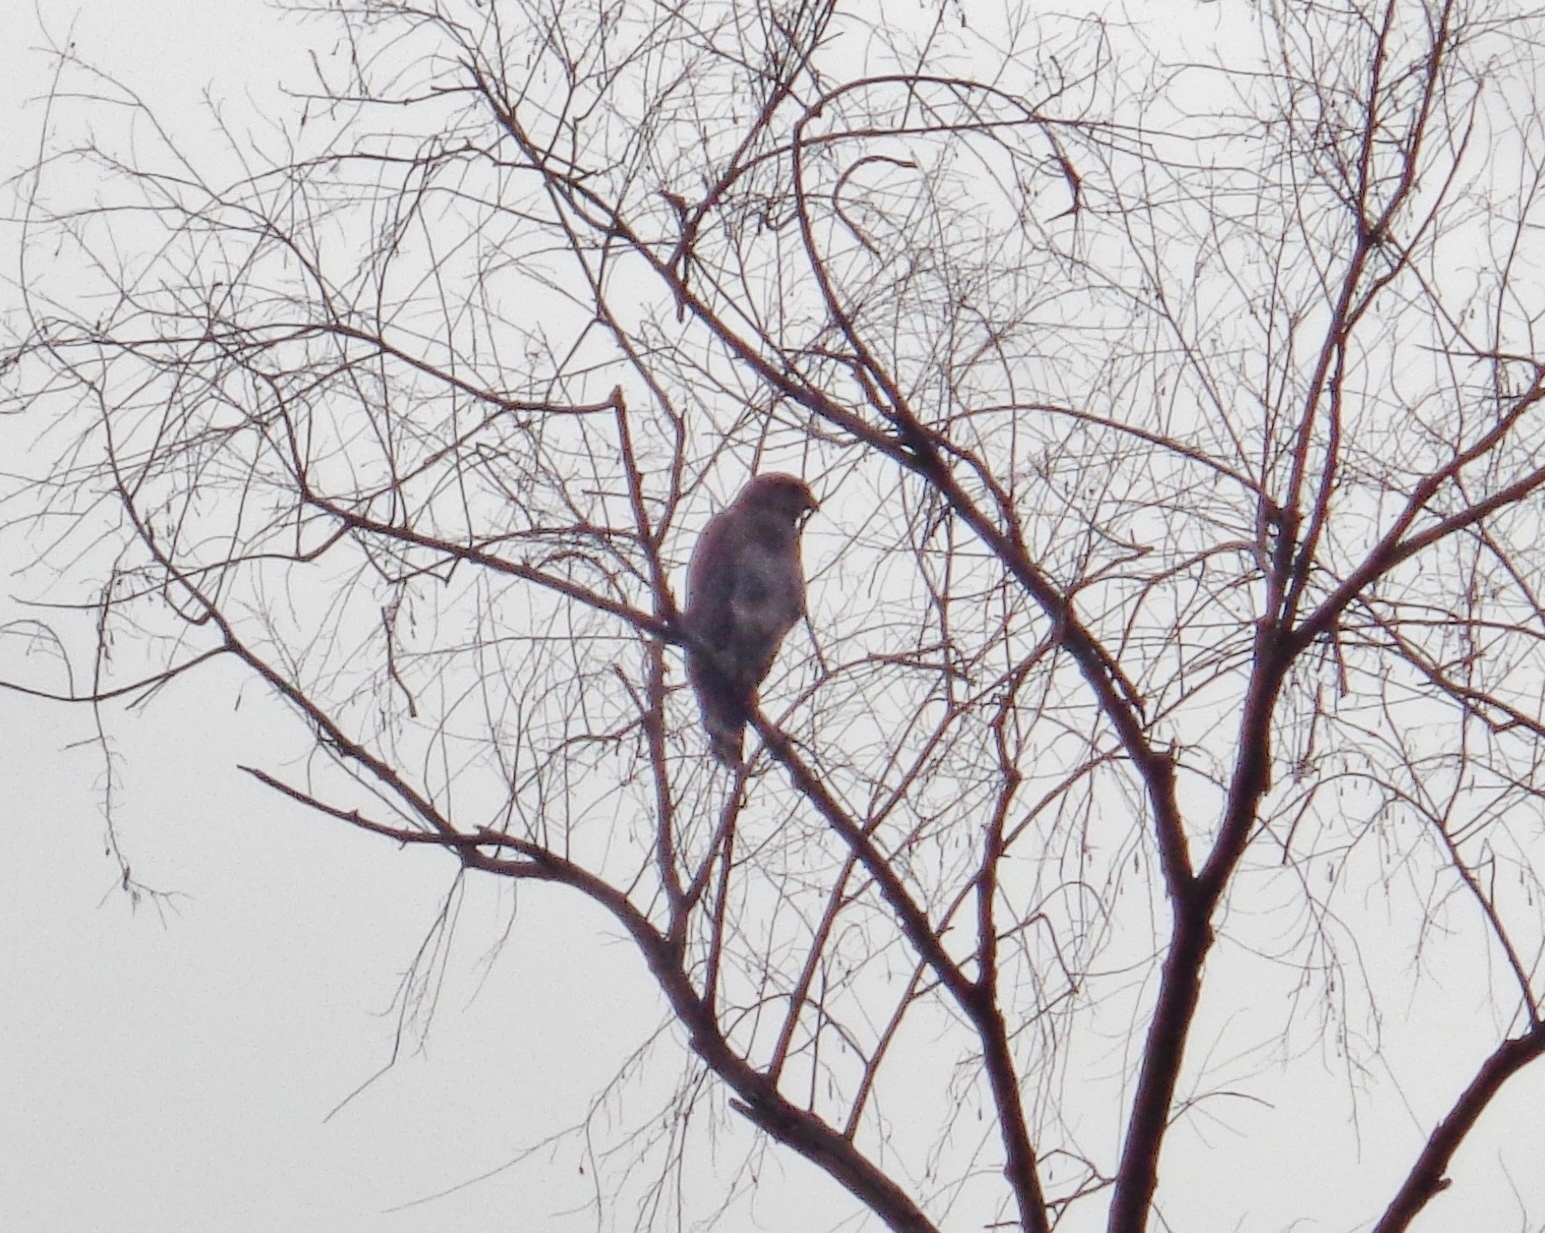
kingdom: Animalia
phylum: Chordata
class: Aves
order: Accipitriformes
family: Accipitridae
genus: Buteo
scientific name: Buteo nitidus
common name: Grey-lined hawk
